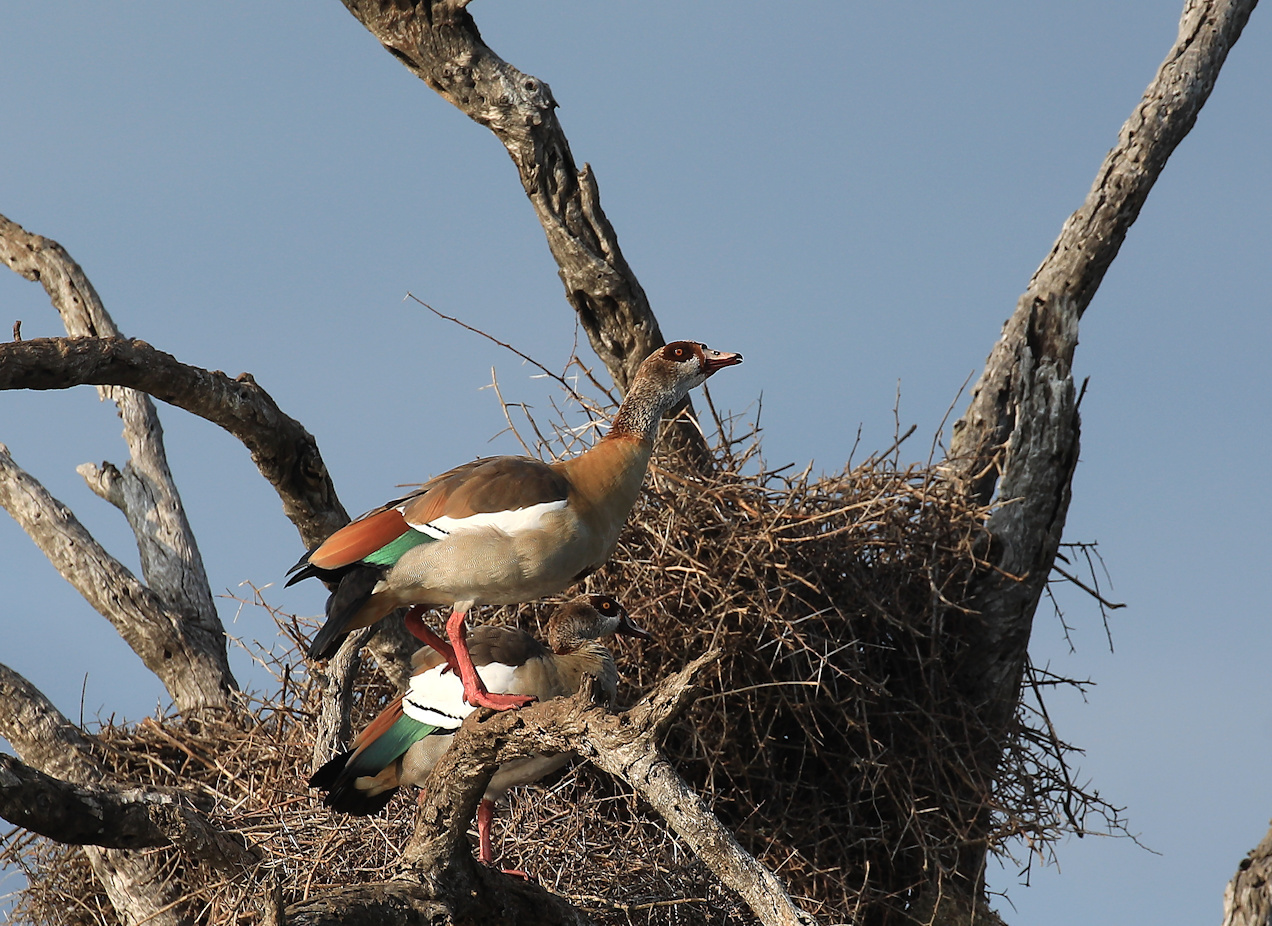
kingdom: Animalia
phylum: Chordata
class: Aves
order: Anseriformes
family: Anatidae
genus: Alopochen
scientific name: Alopochen aegyptiaca
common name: Egyptian goose
